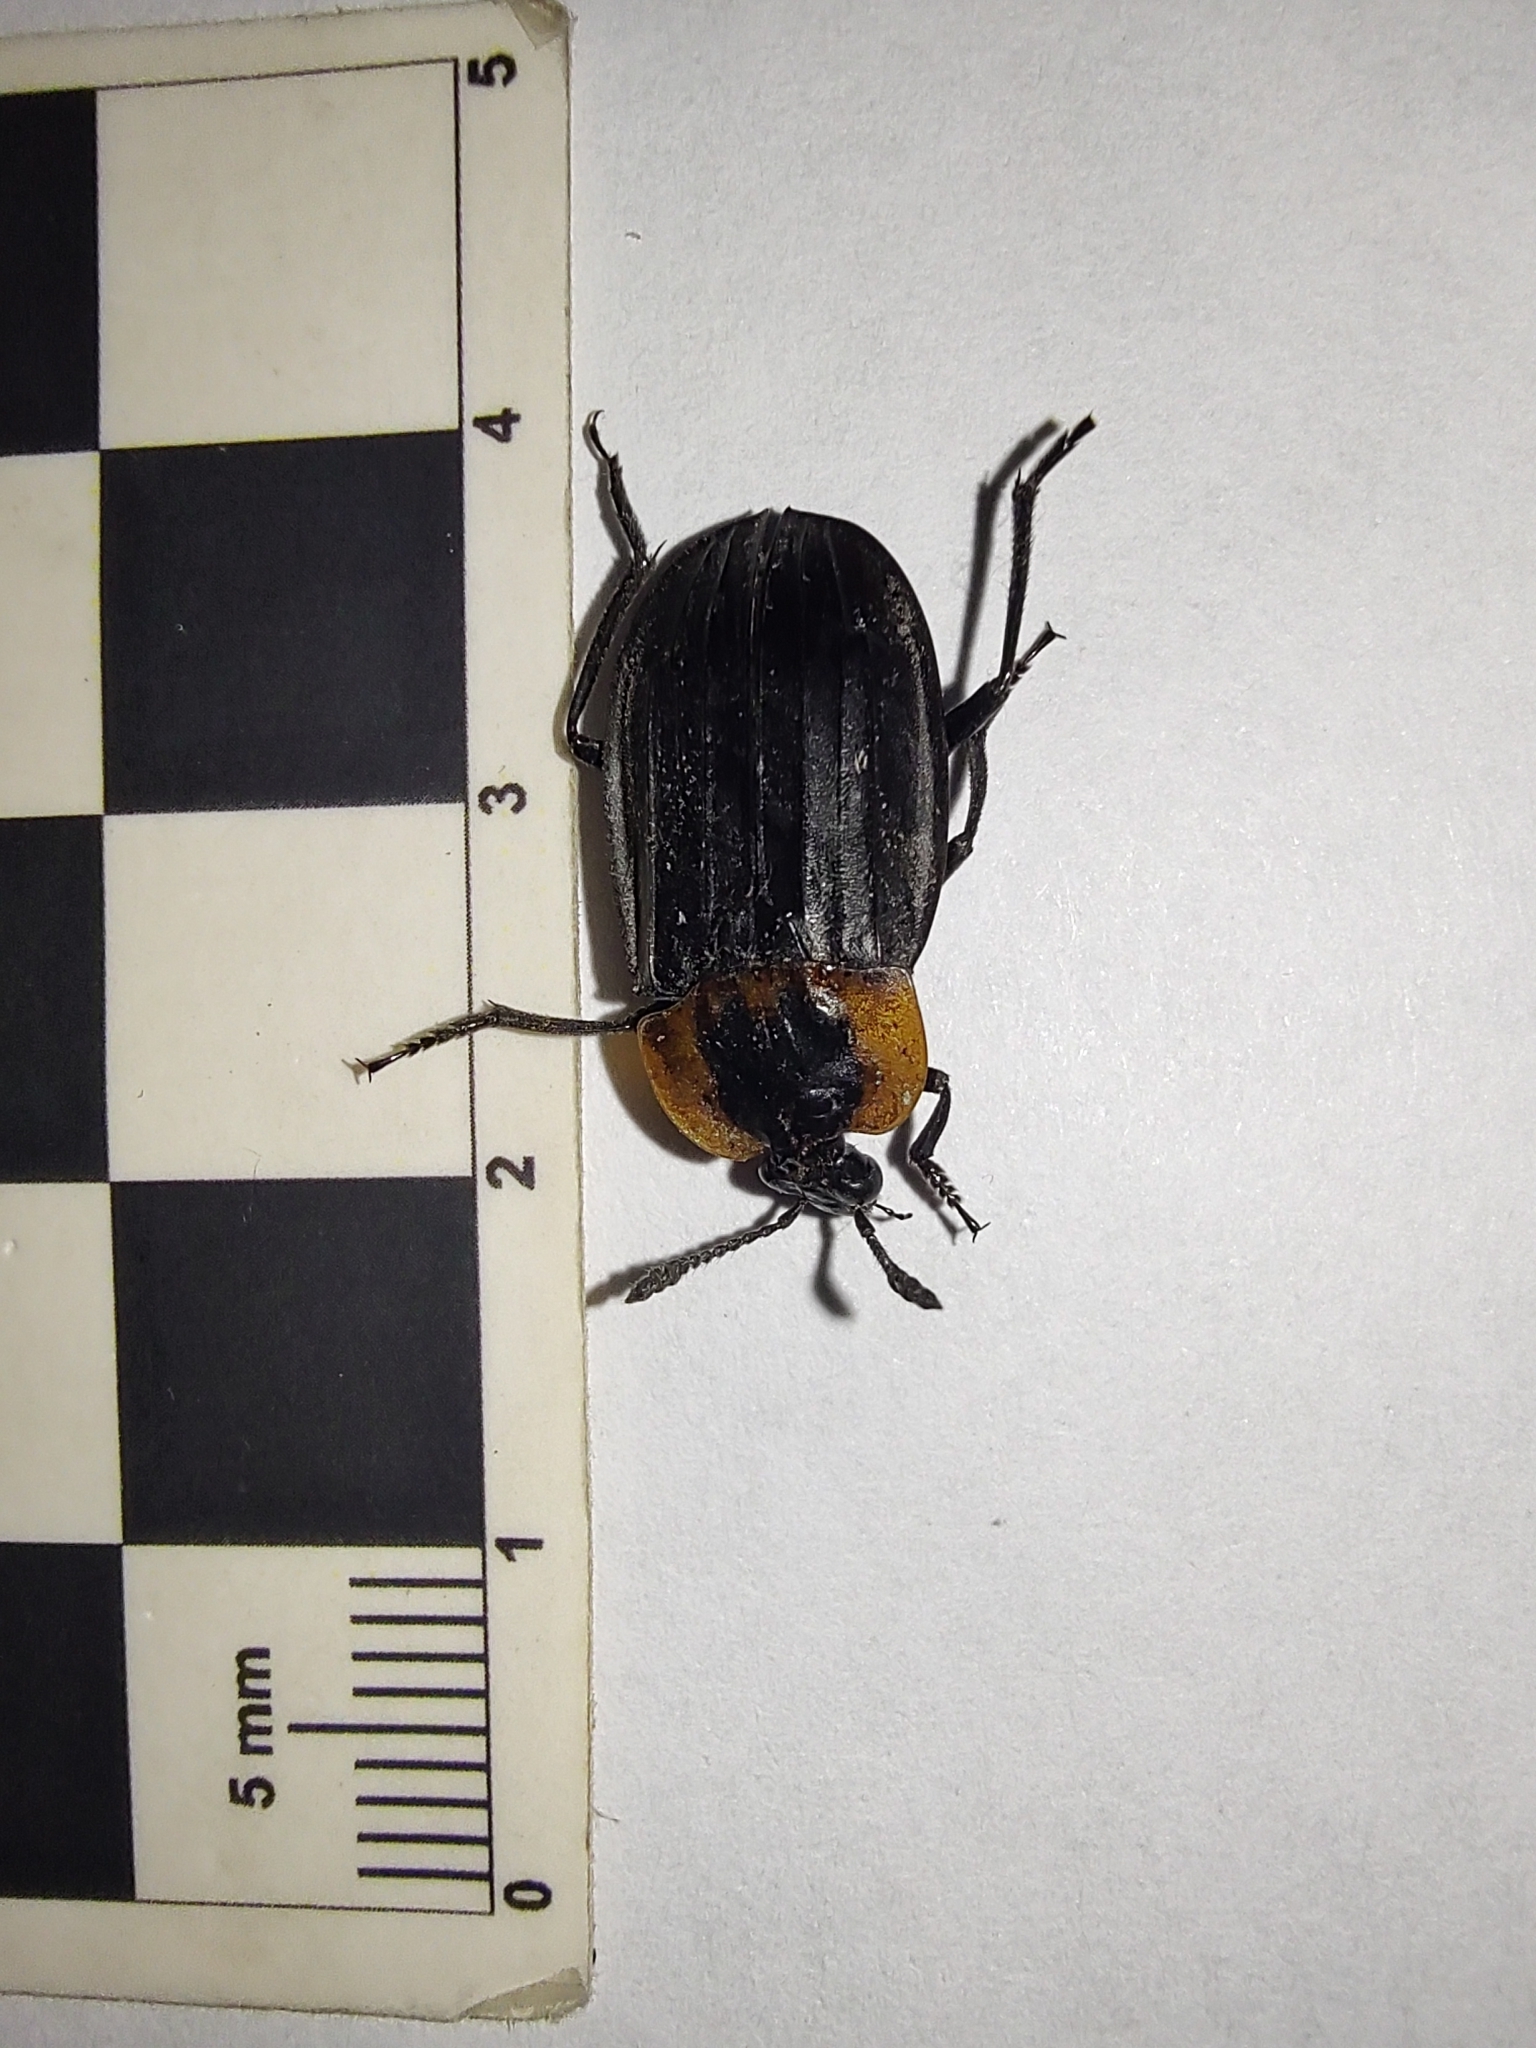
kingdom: Animalia
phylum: Arthropoda
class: Insecta
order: Coleoptera
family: Staphylinidae
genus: Oxelytrum
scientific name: Oxelytrum discicolle
